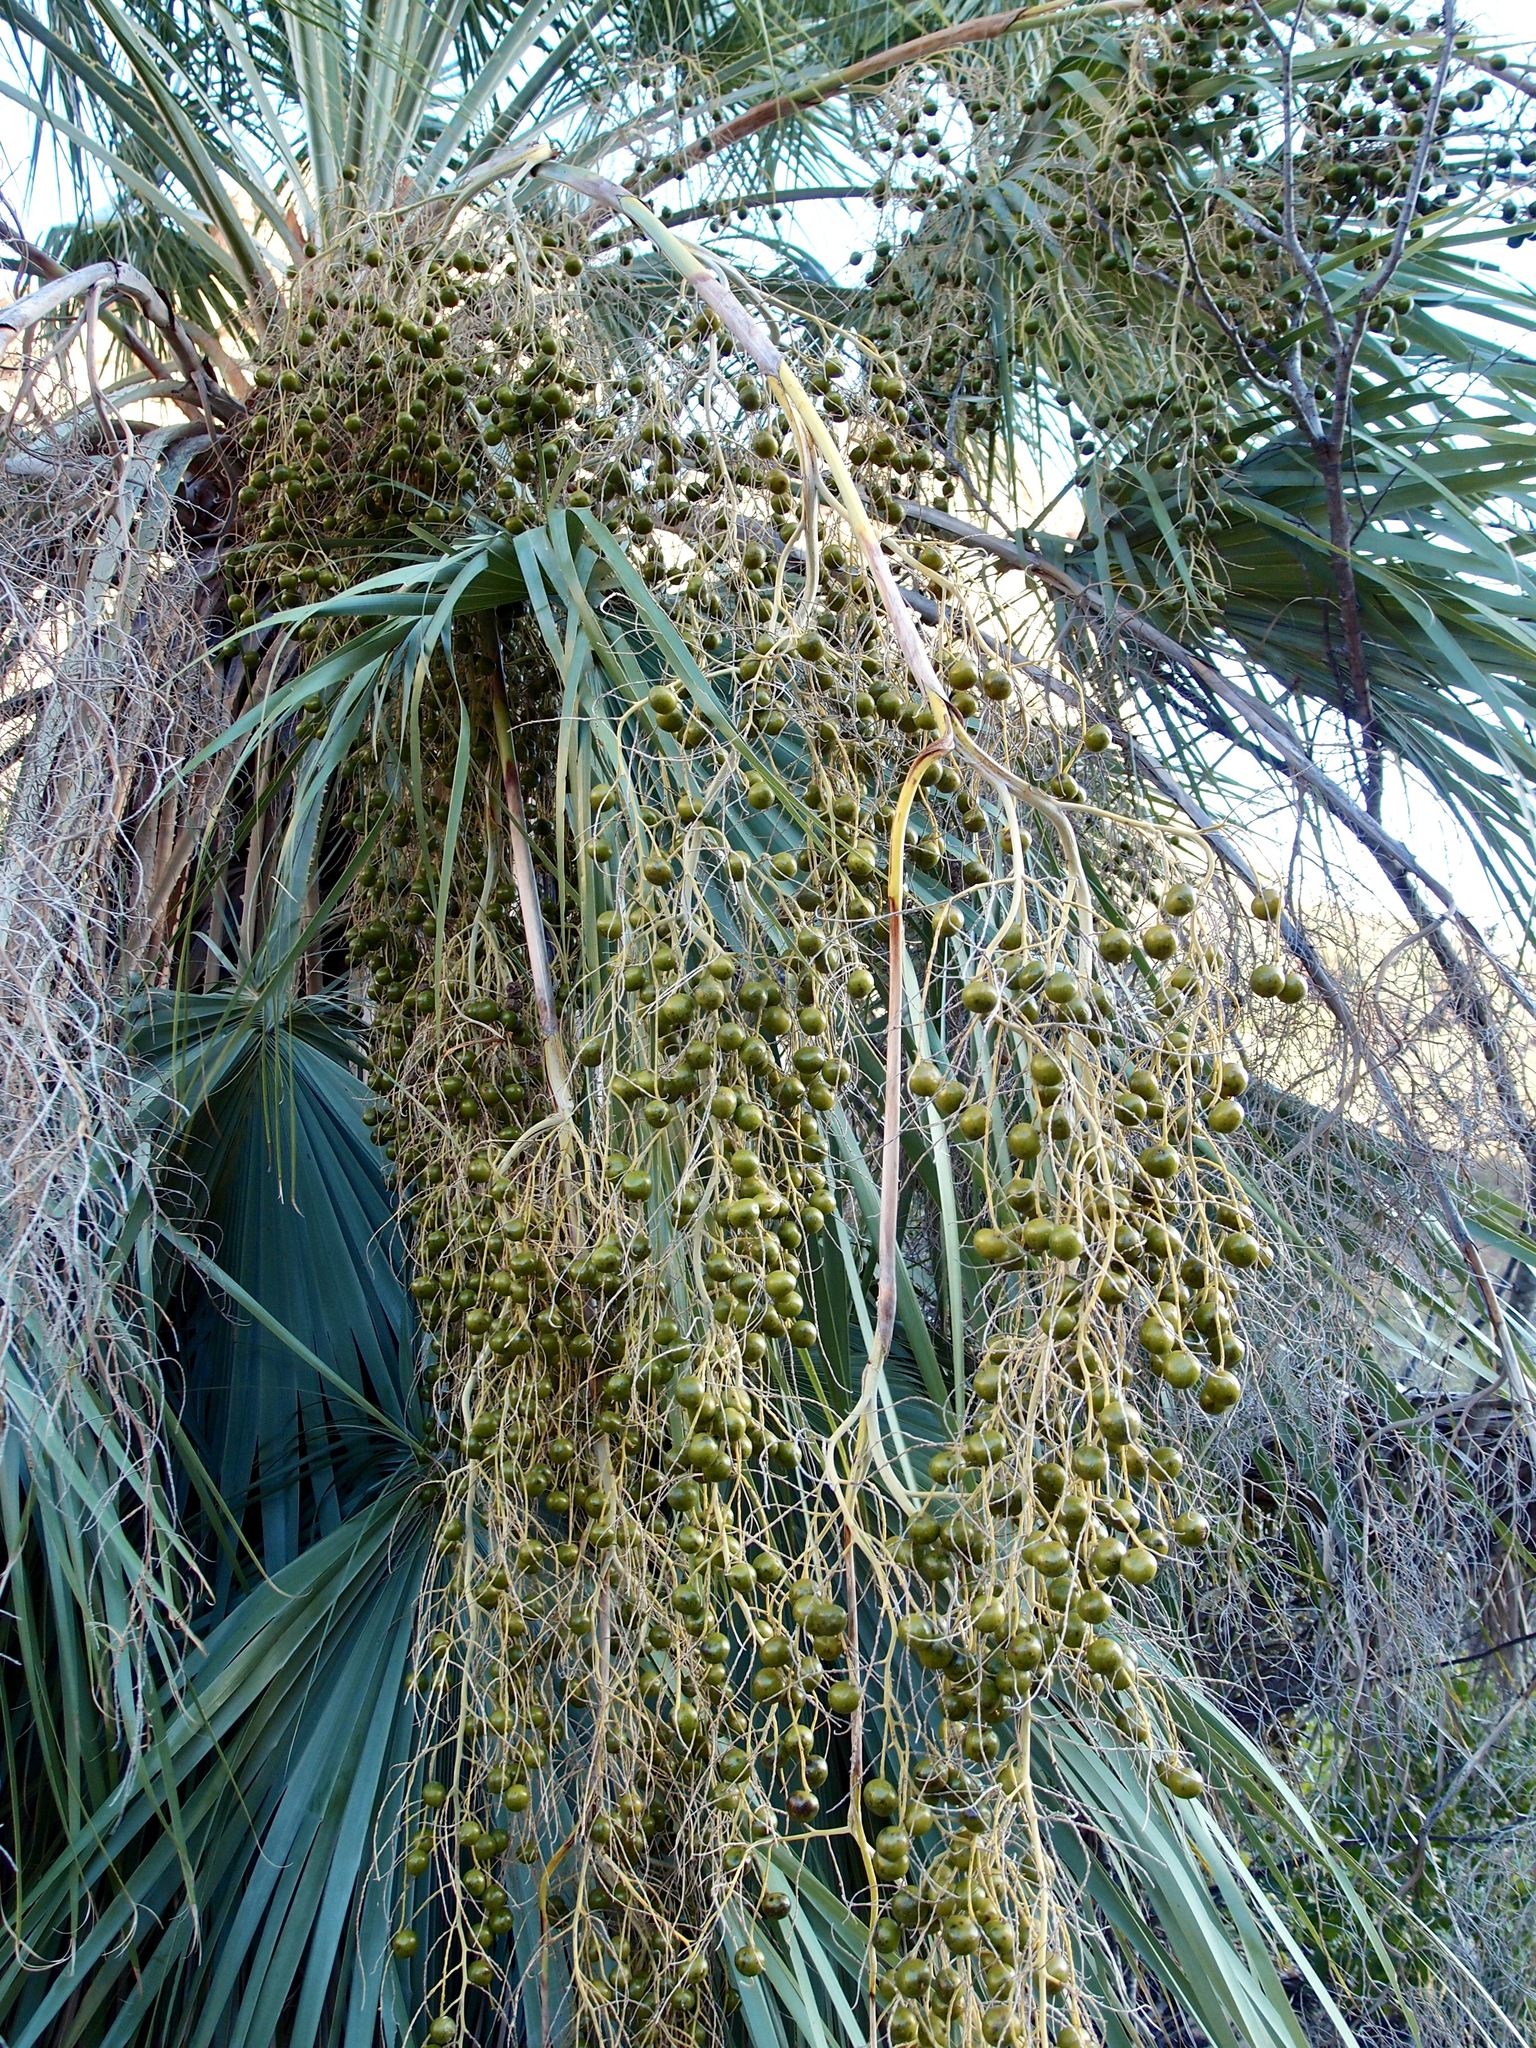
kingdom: Plantae
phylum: Tracheophyta
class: Liliopsida
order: Arecales
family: Arecaceae
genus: Brahea
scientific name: Brahea brandegeei
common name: San jose hesper palm
